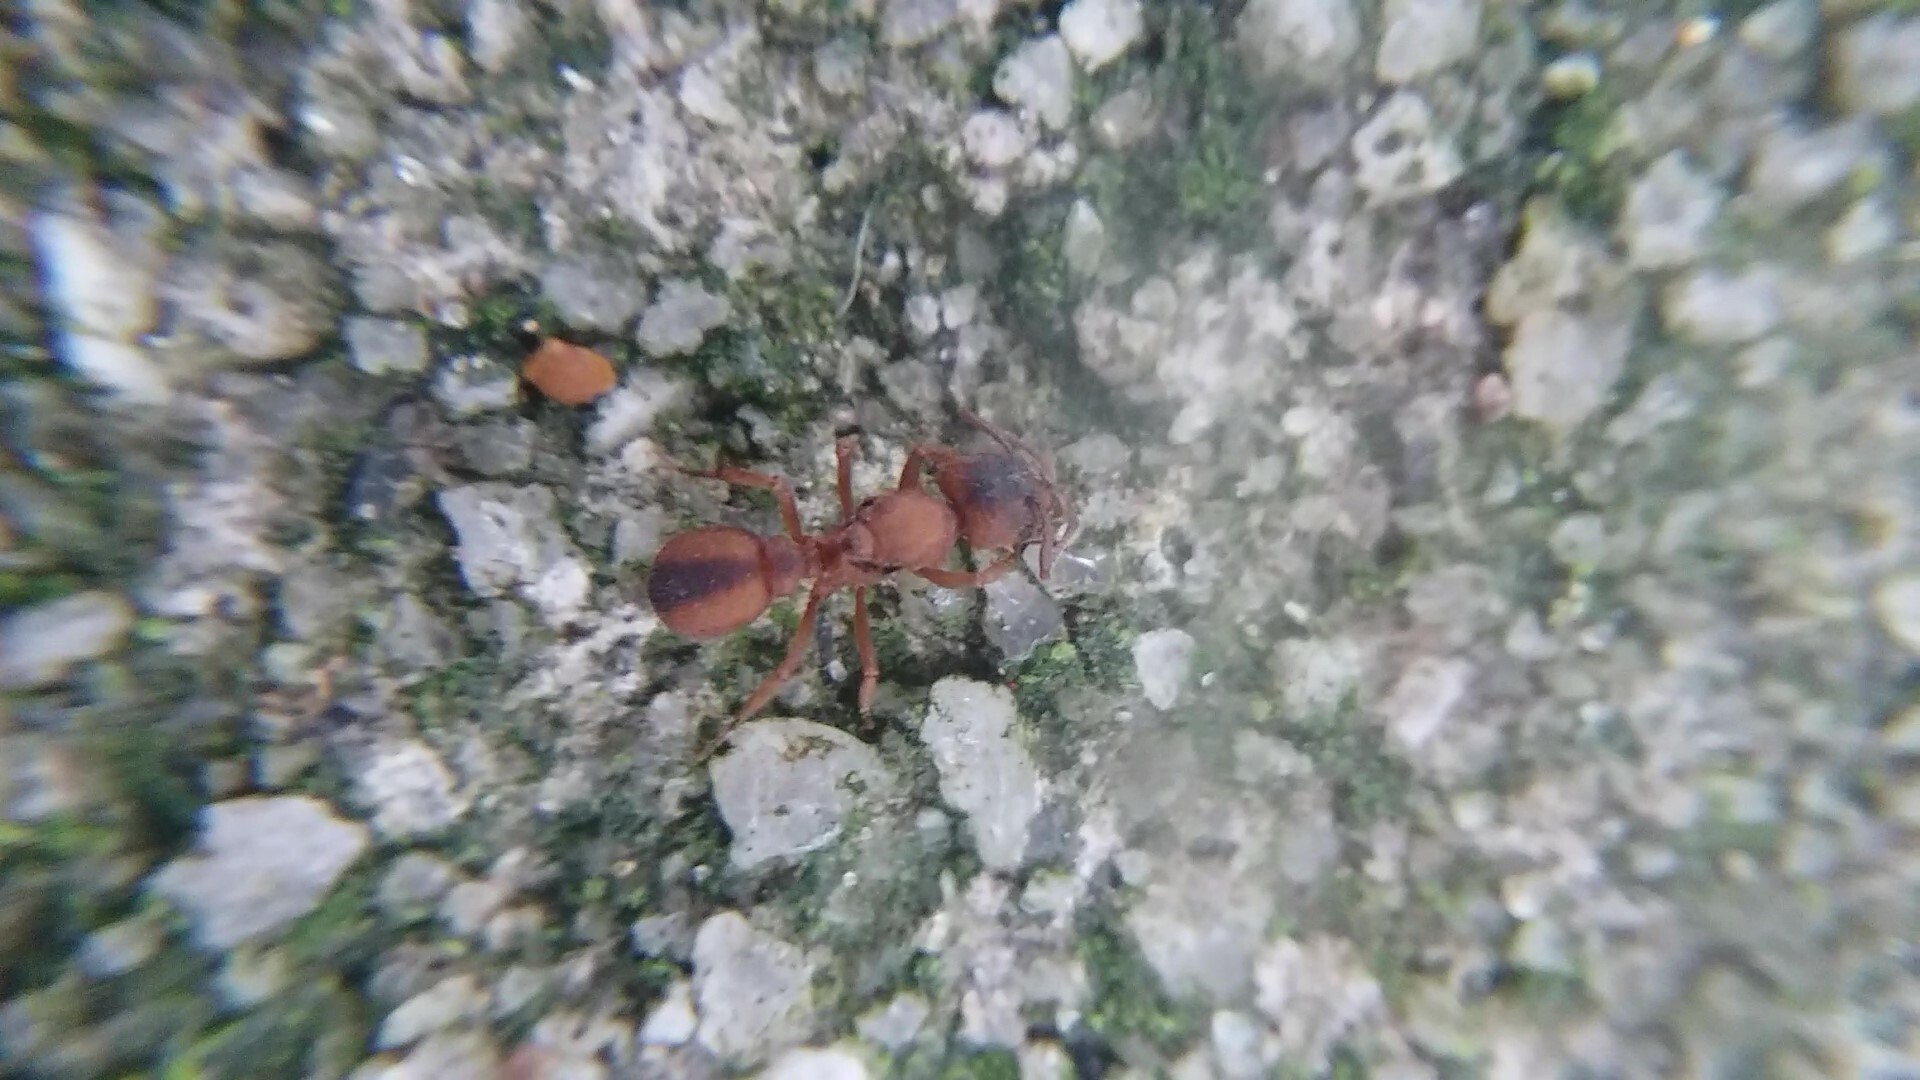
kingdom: Animalia
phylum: Arthropoda
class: Insecta
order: Hymenoptera
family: Formicidae
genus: Trachymyrmex
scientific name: Trachymyrmex septentrionalis
